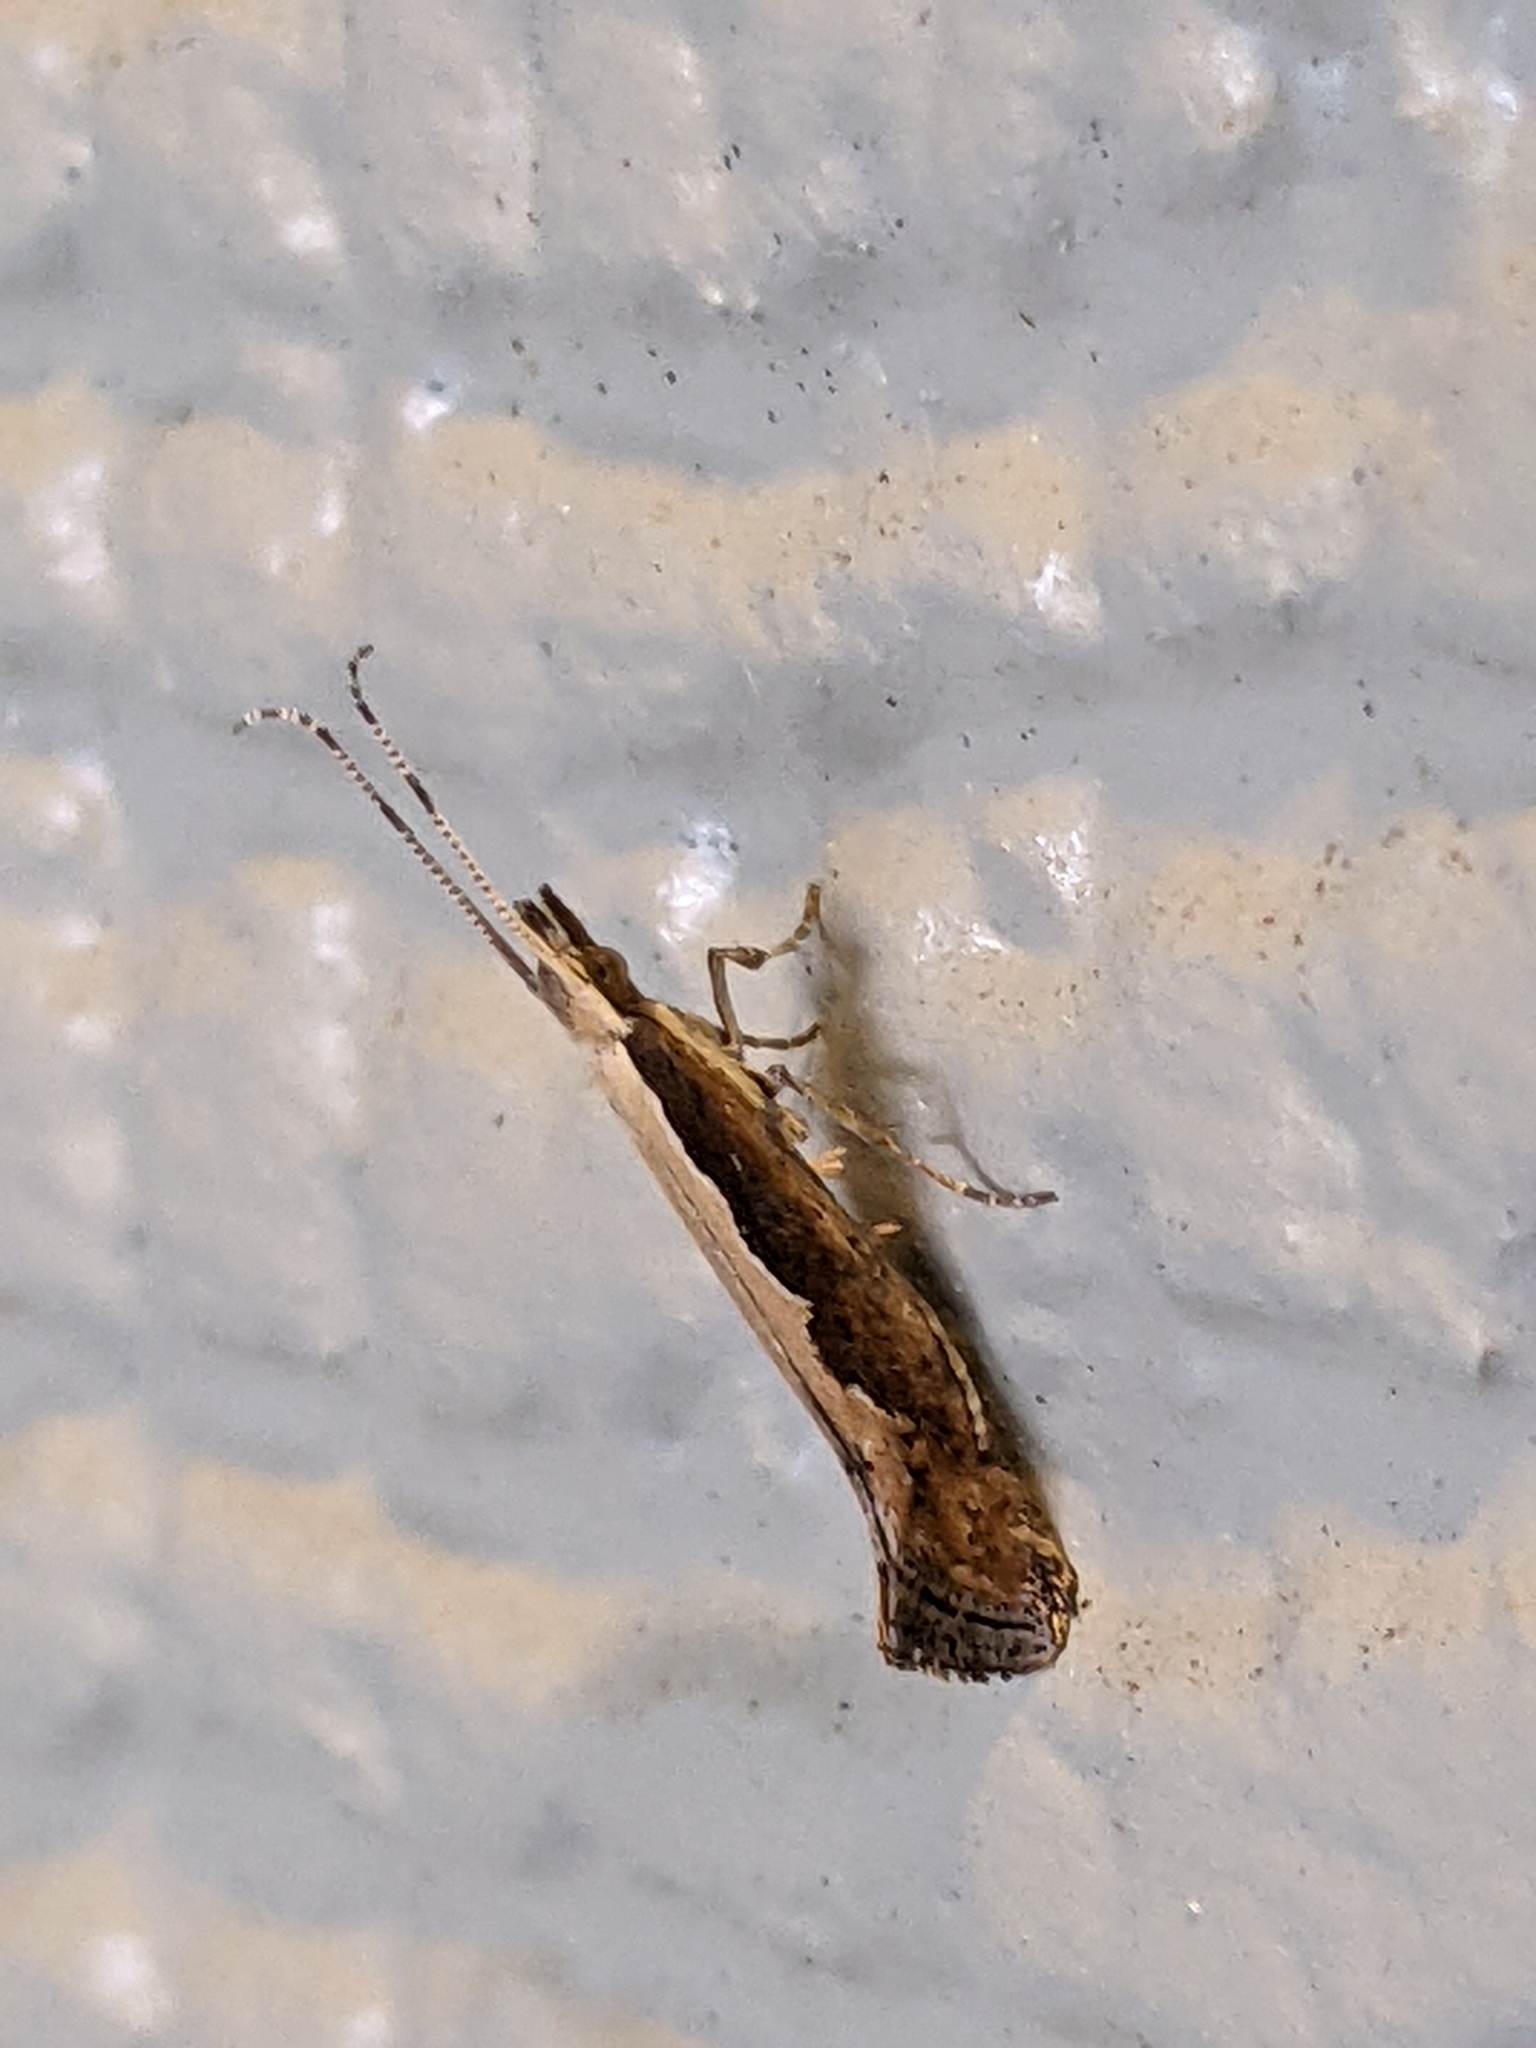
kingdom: Animalia
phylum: Arthropoda
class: Insecta
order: Lepidoptera
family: Plutellidae
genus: Plutella
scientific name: Plutella xylostella
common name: Diamond-back moth
